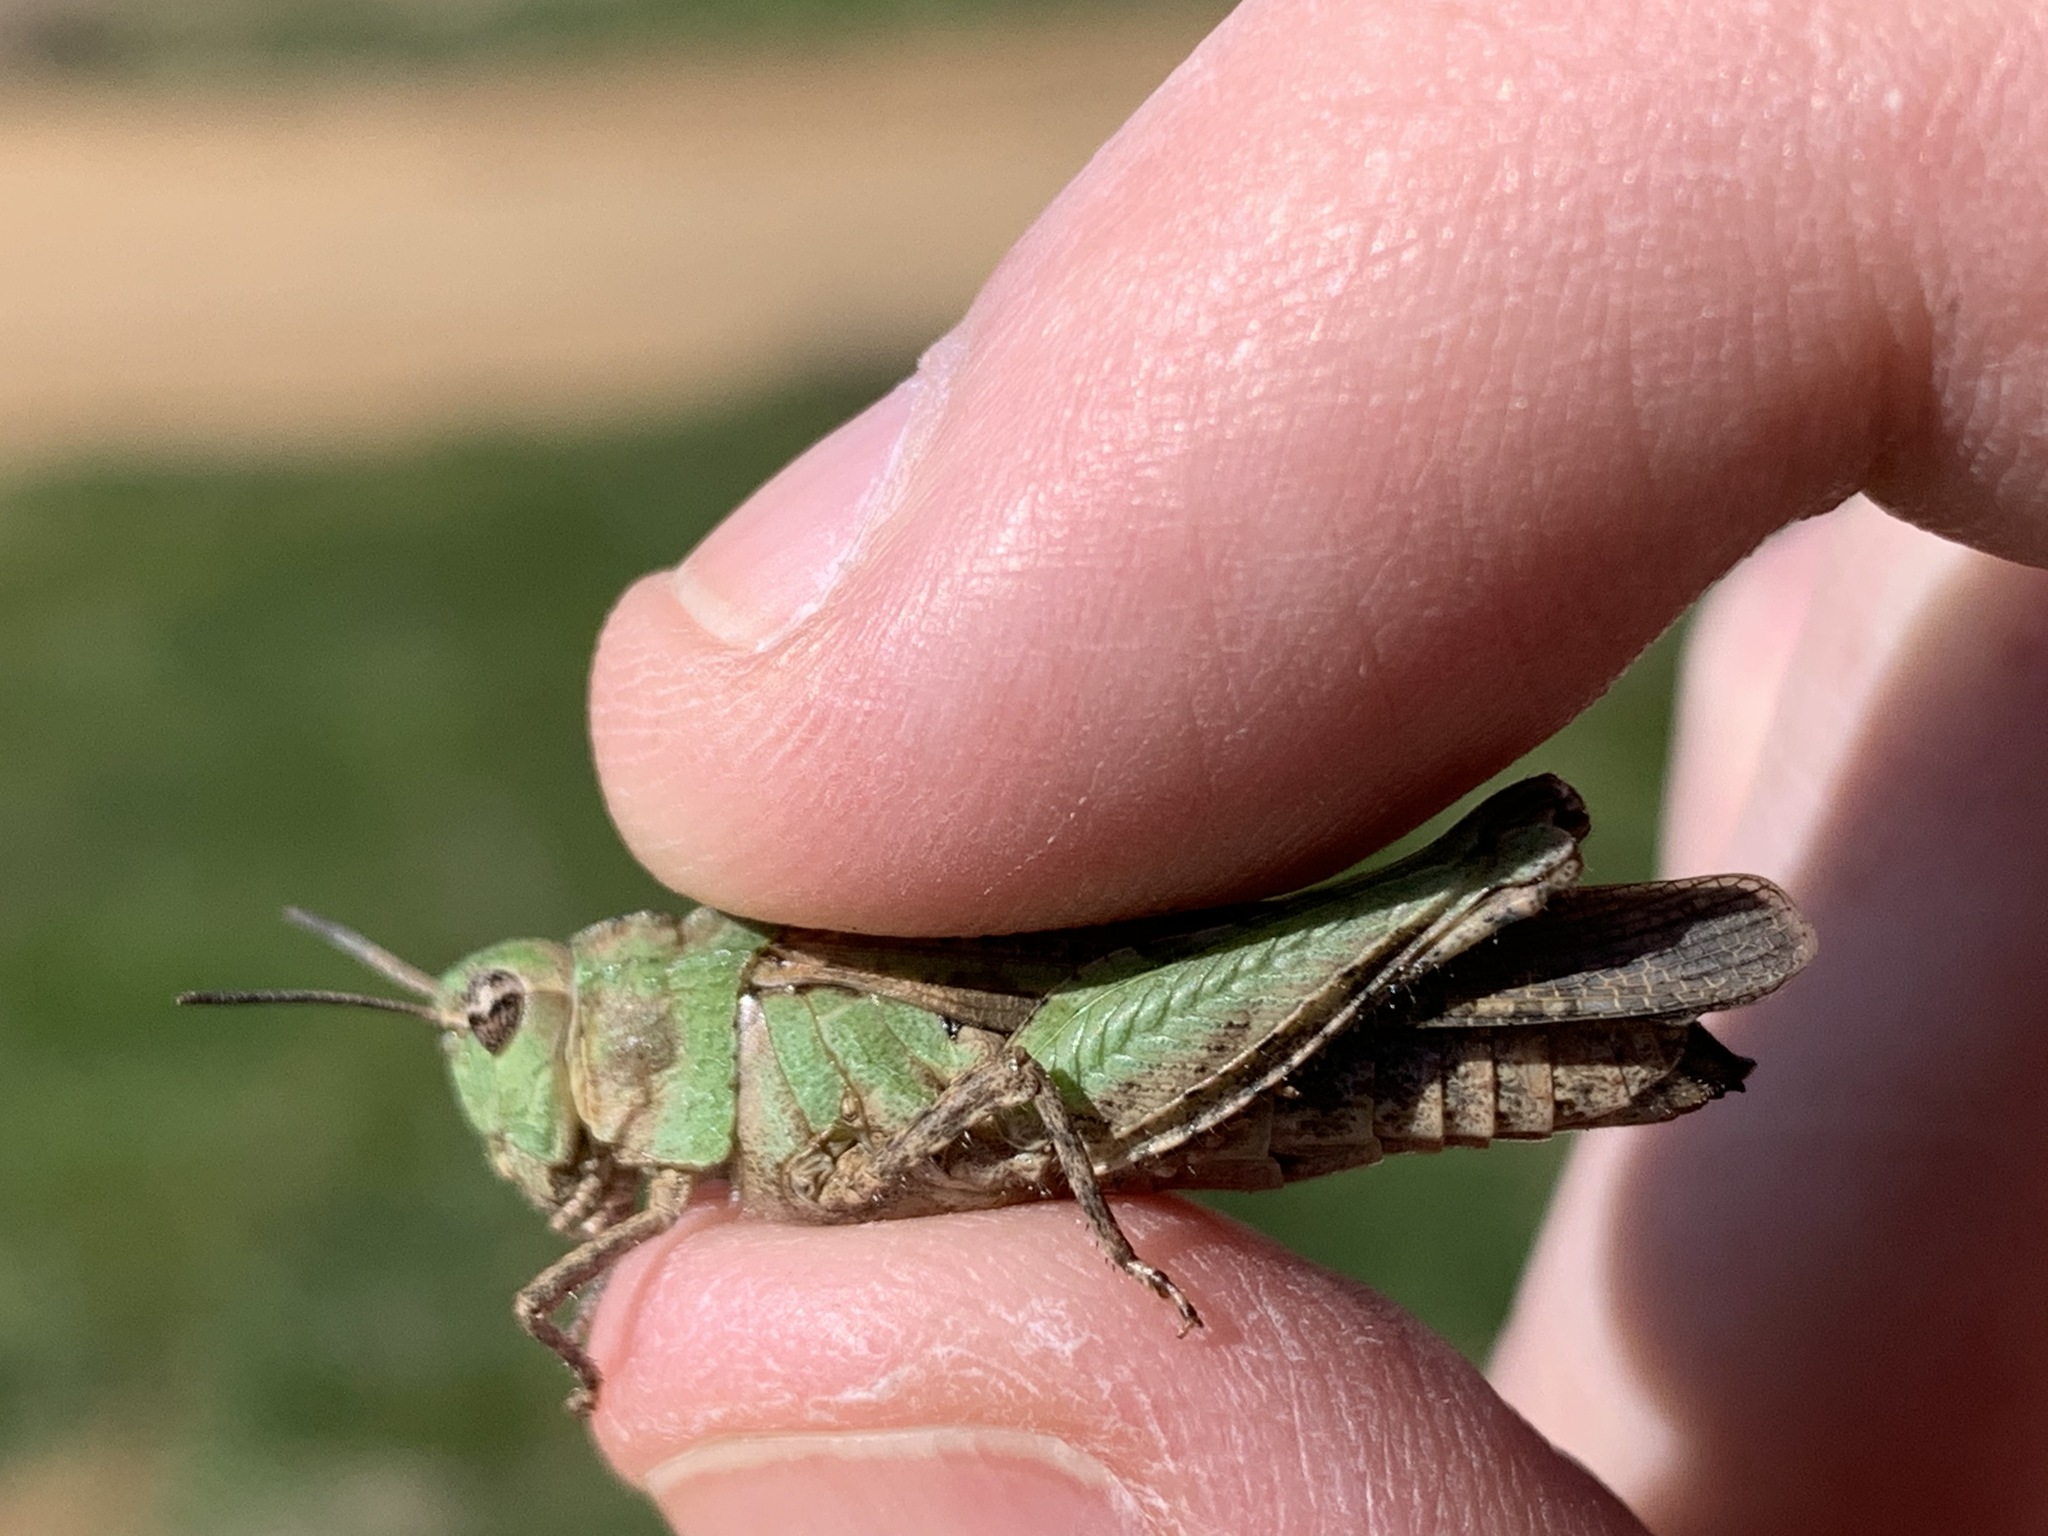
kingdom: Animalia
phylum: Arthropoda
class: Insecta
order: Orthoptera
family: Acrididae
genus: Chimarocephala
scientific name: Chimarocephala pacifica
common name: Painted meadow grasshopper
